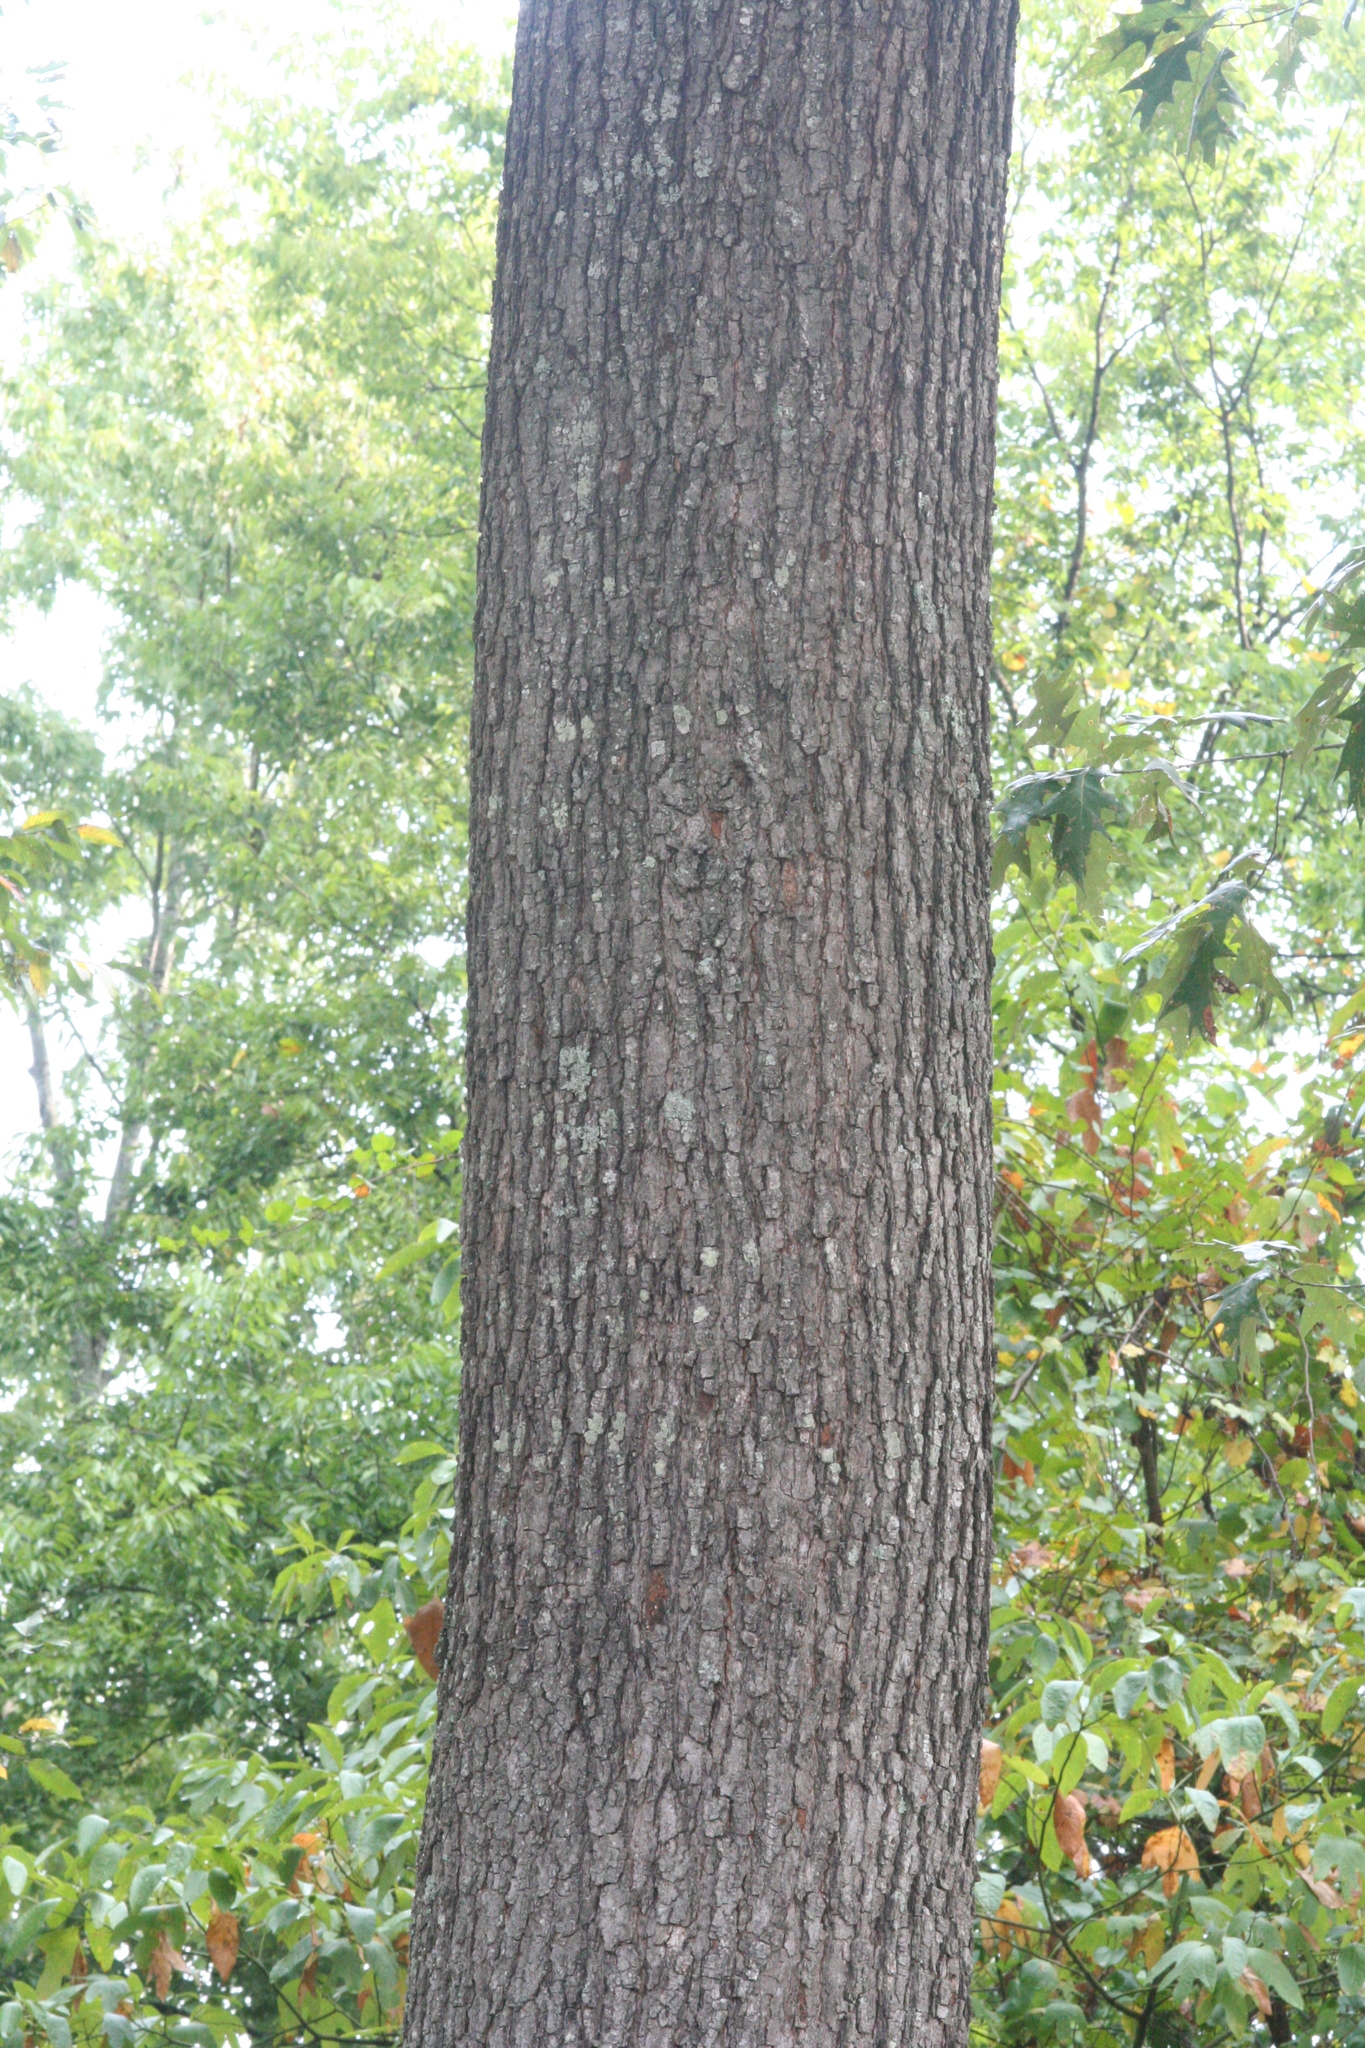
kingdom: Plantae
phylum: Tracheophyta
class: Magnoliopsida
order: Fagales
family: Fagaceae
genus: Quercus
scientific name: Quercus pagoda
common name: Cherrybark oak
